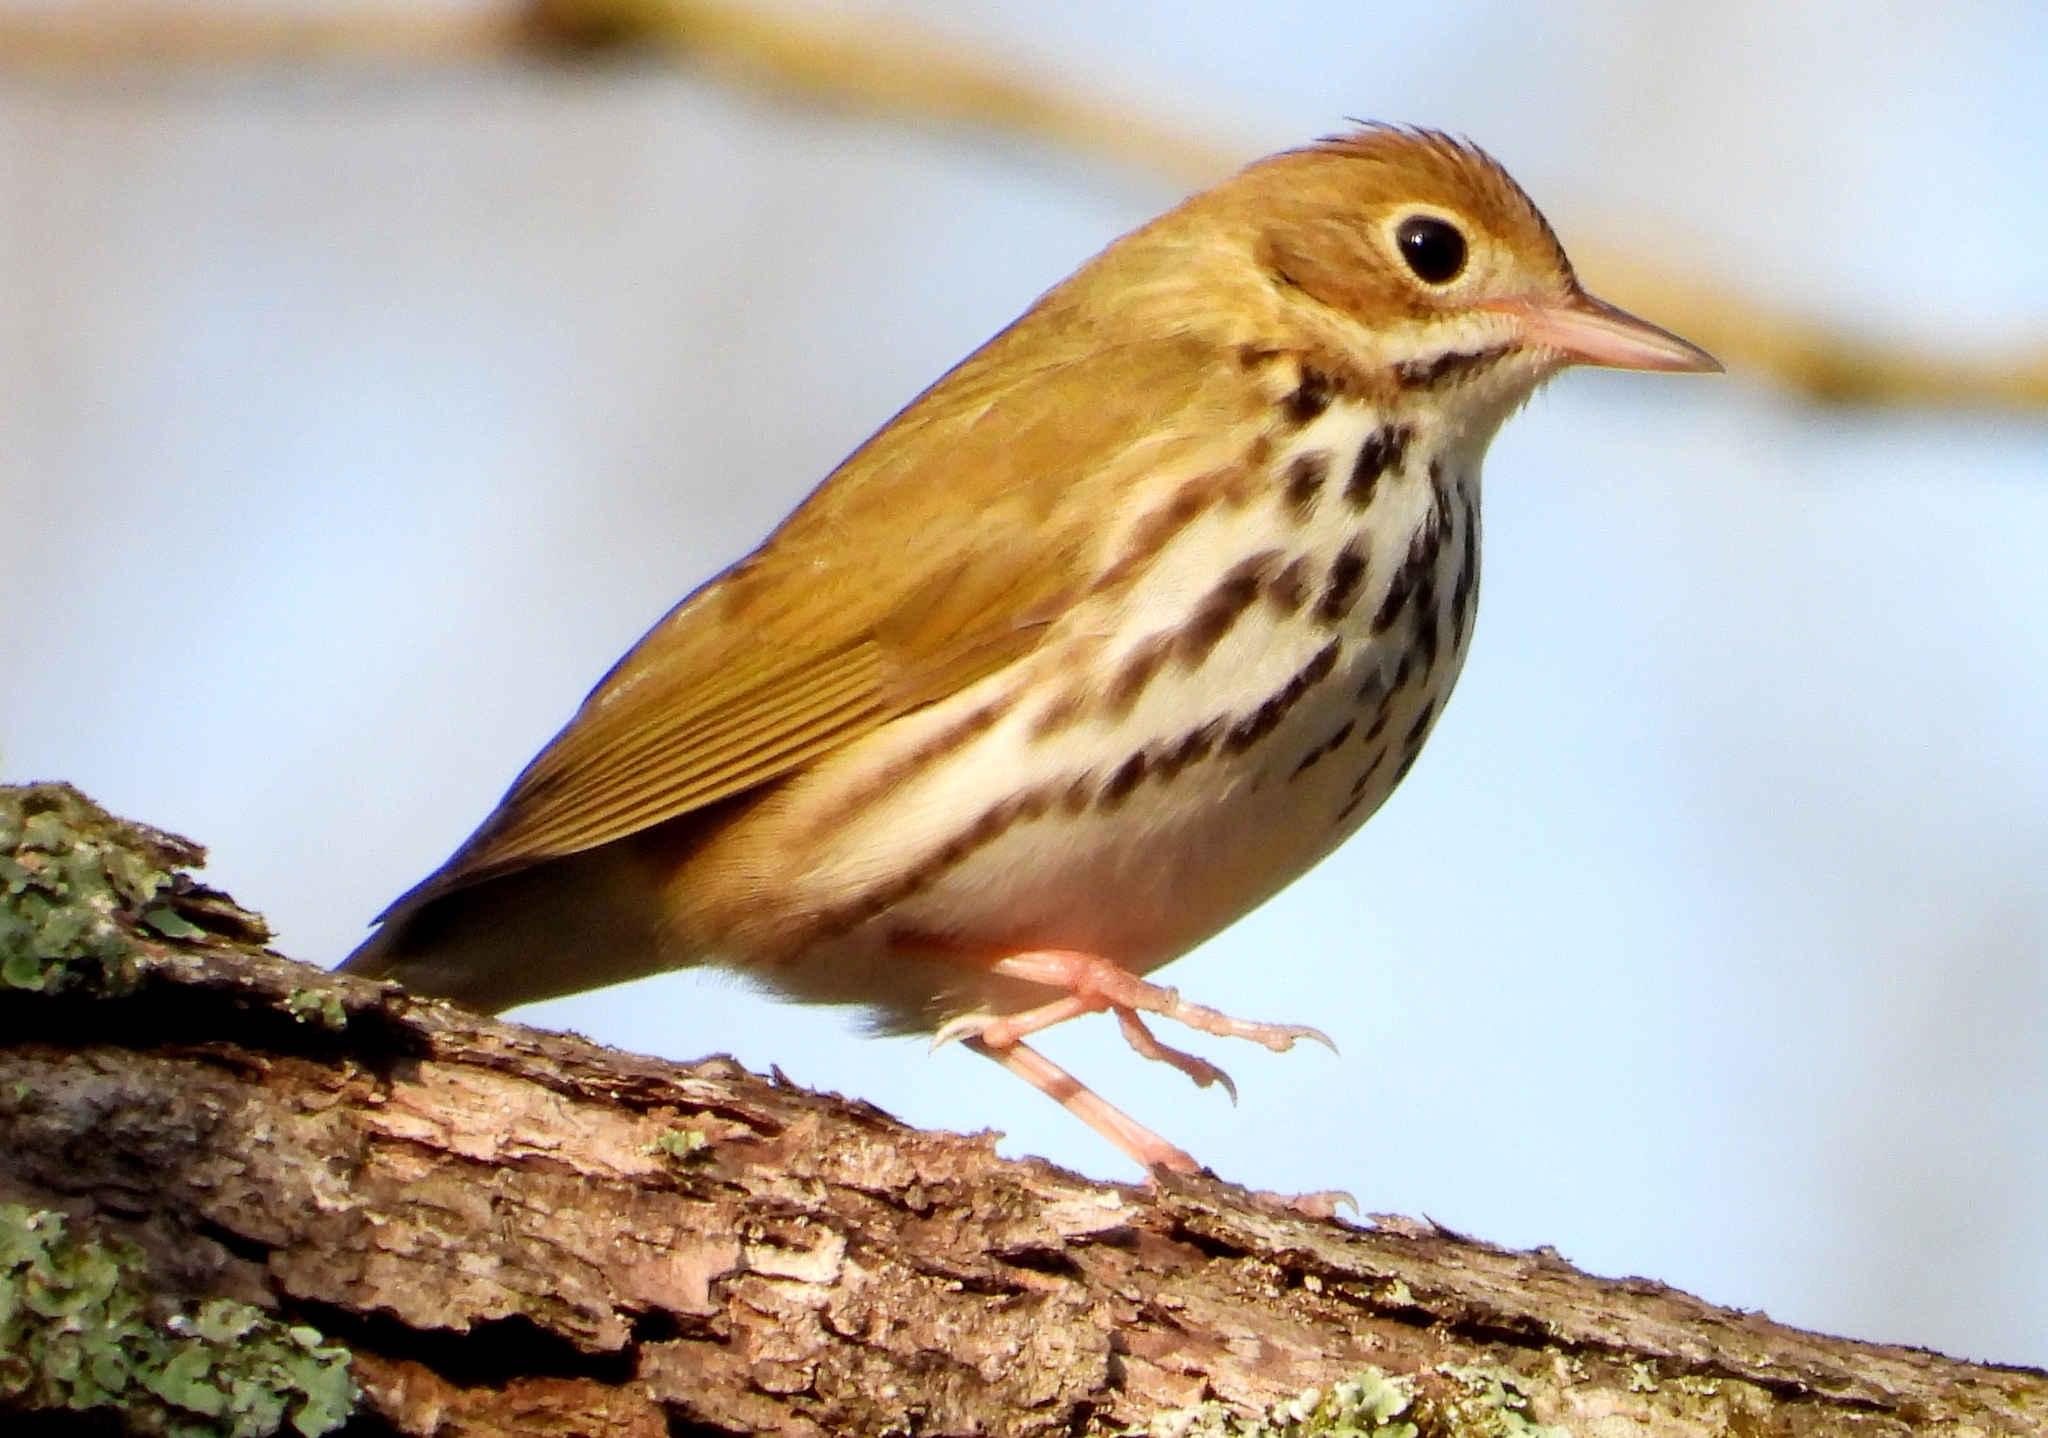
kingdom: Animalia
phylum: Chordata
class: Aves
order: Passeriformes
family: Parulidae
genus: Seiurus
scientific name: Seiurus aurocapilla
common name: Ovenbird
